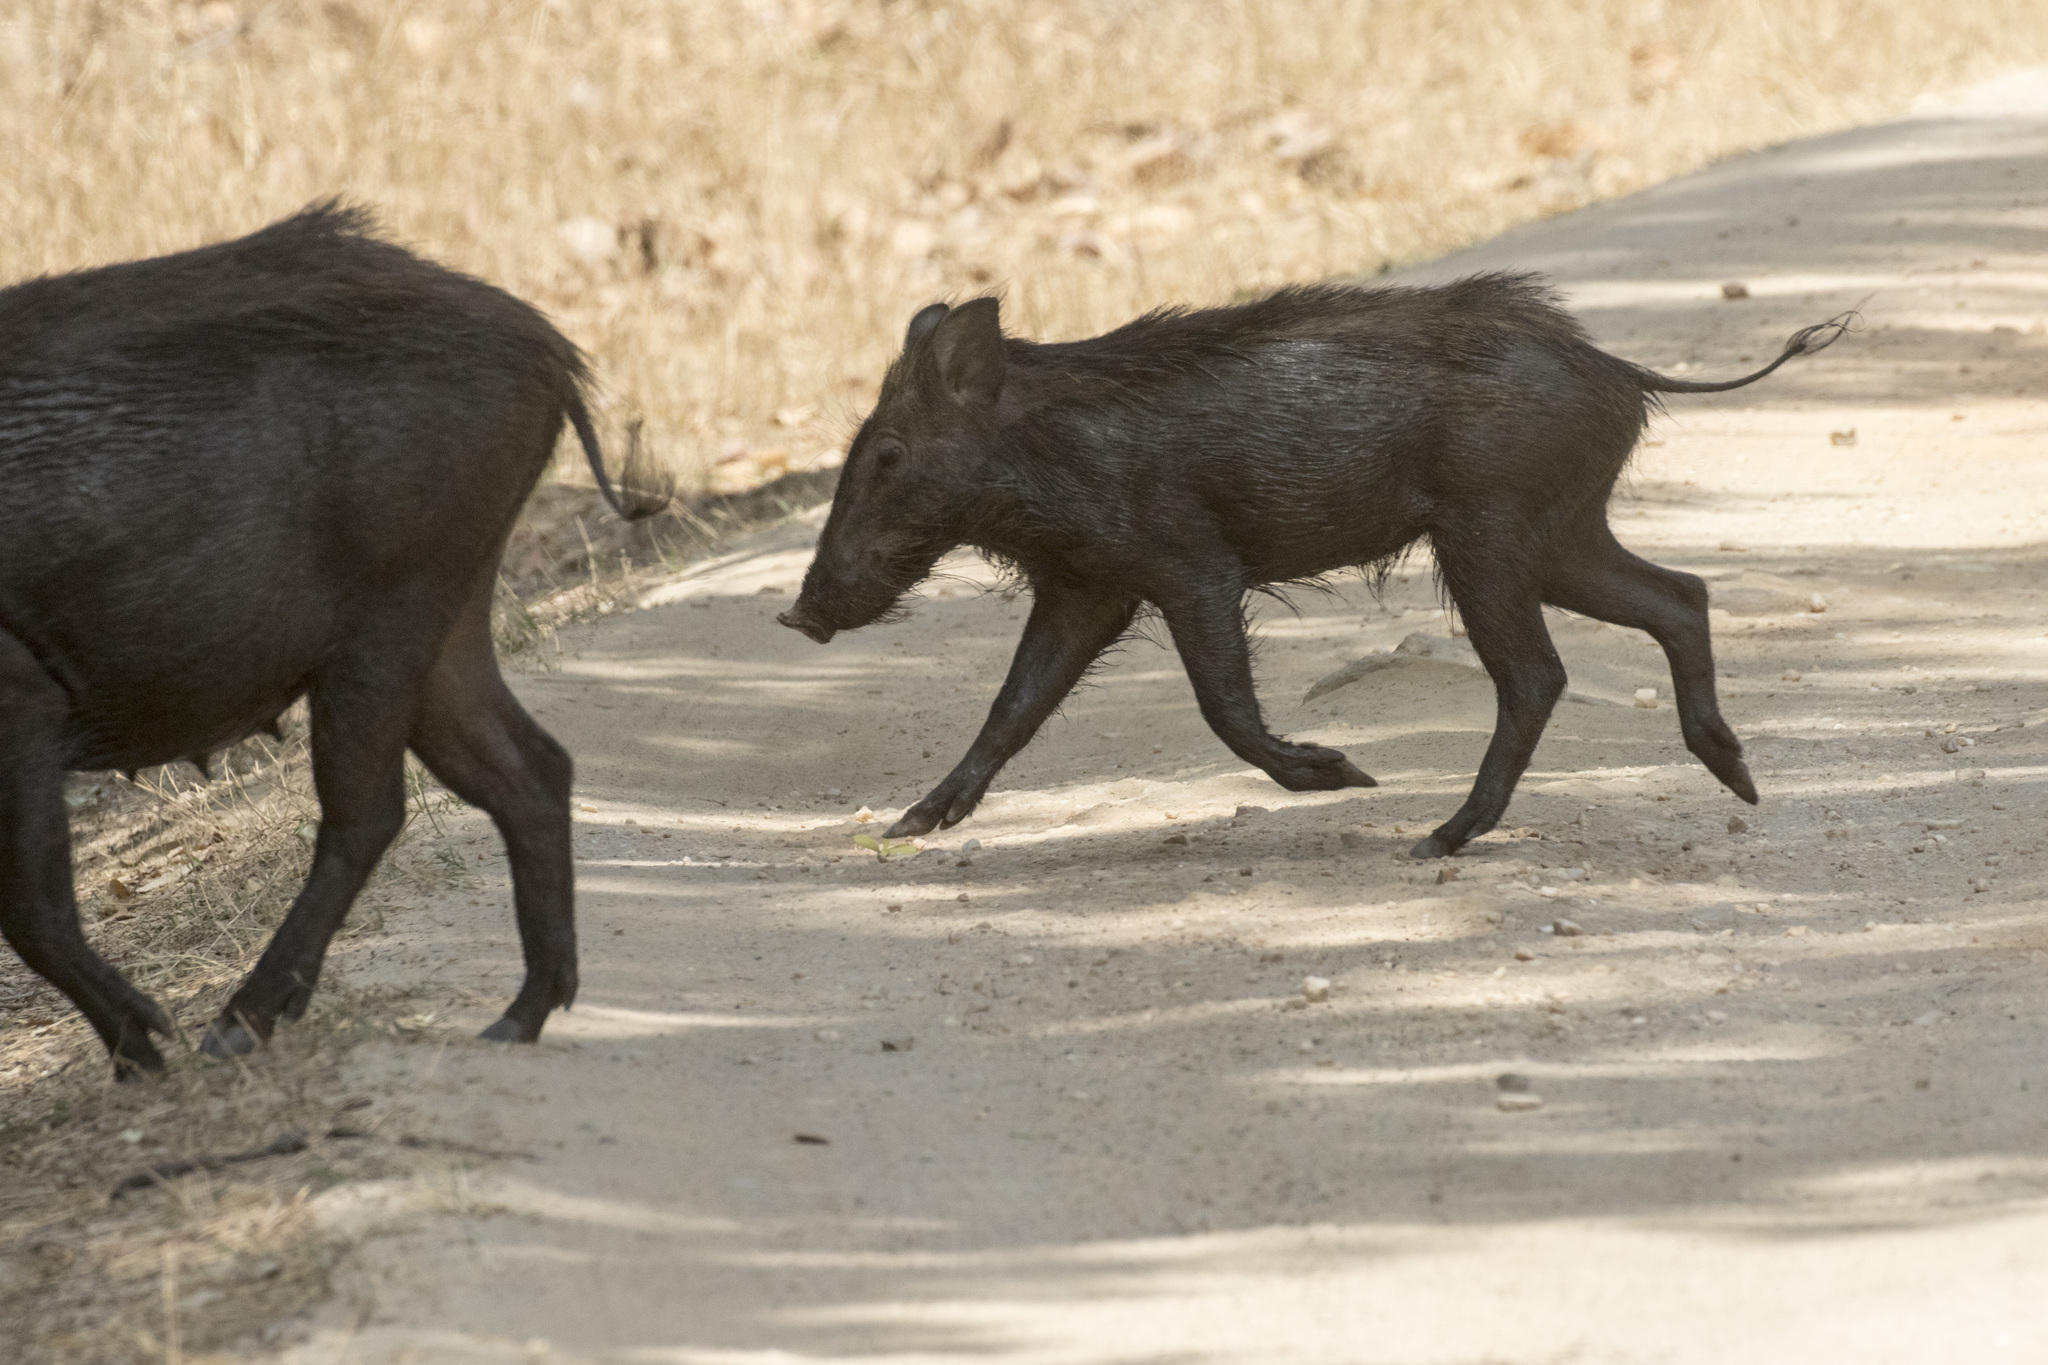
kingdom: Animalia
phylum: Chordata
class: Mammalia
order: Artiodactyla
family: Suidae
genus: Sus
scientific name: Sus scrofa
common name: Wild boar
